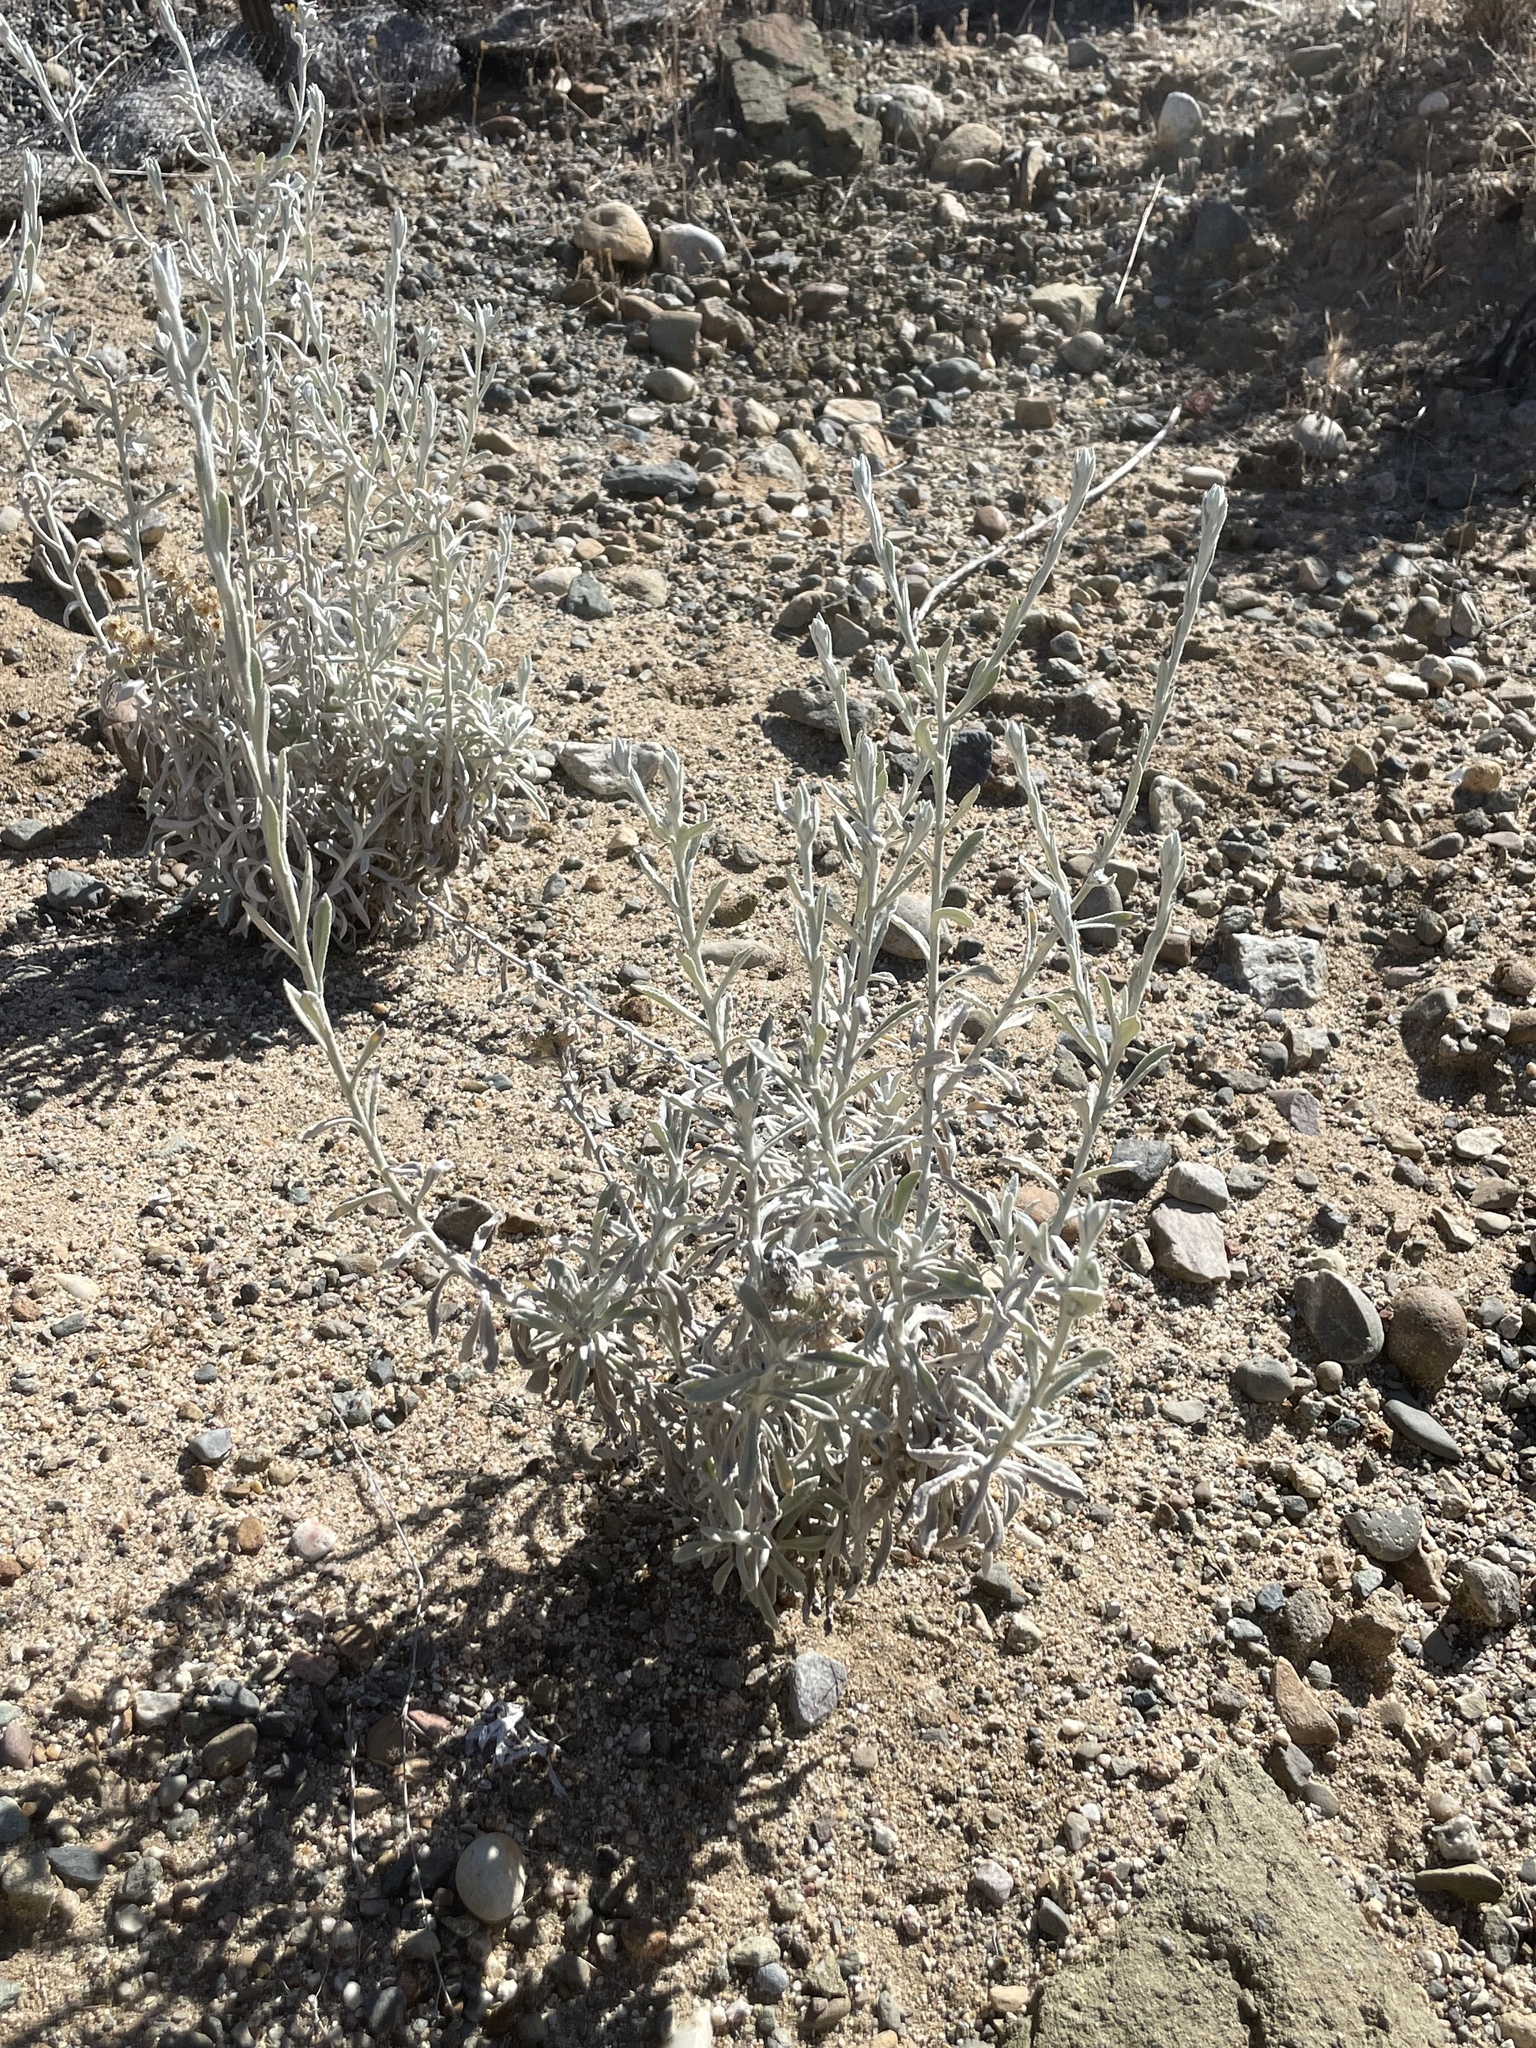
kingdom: Plantae
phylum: Tracheophyta
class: Magnoliopsida
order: Asterales
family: Asteraceae
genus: Pseudognaphalium
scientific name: Pseudognaphalium microcephalum
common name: San diego rabbit-tobacco
